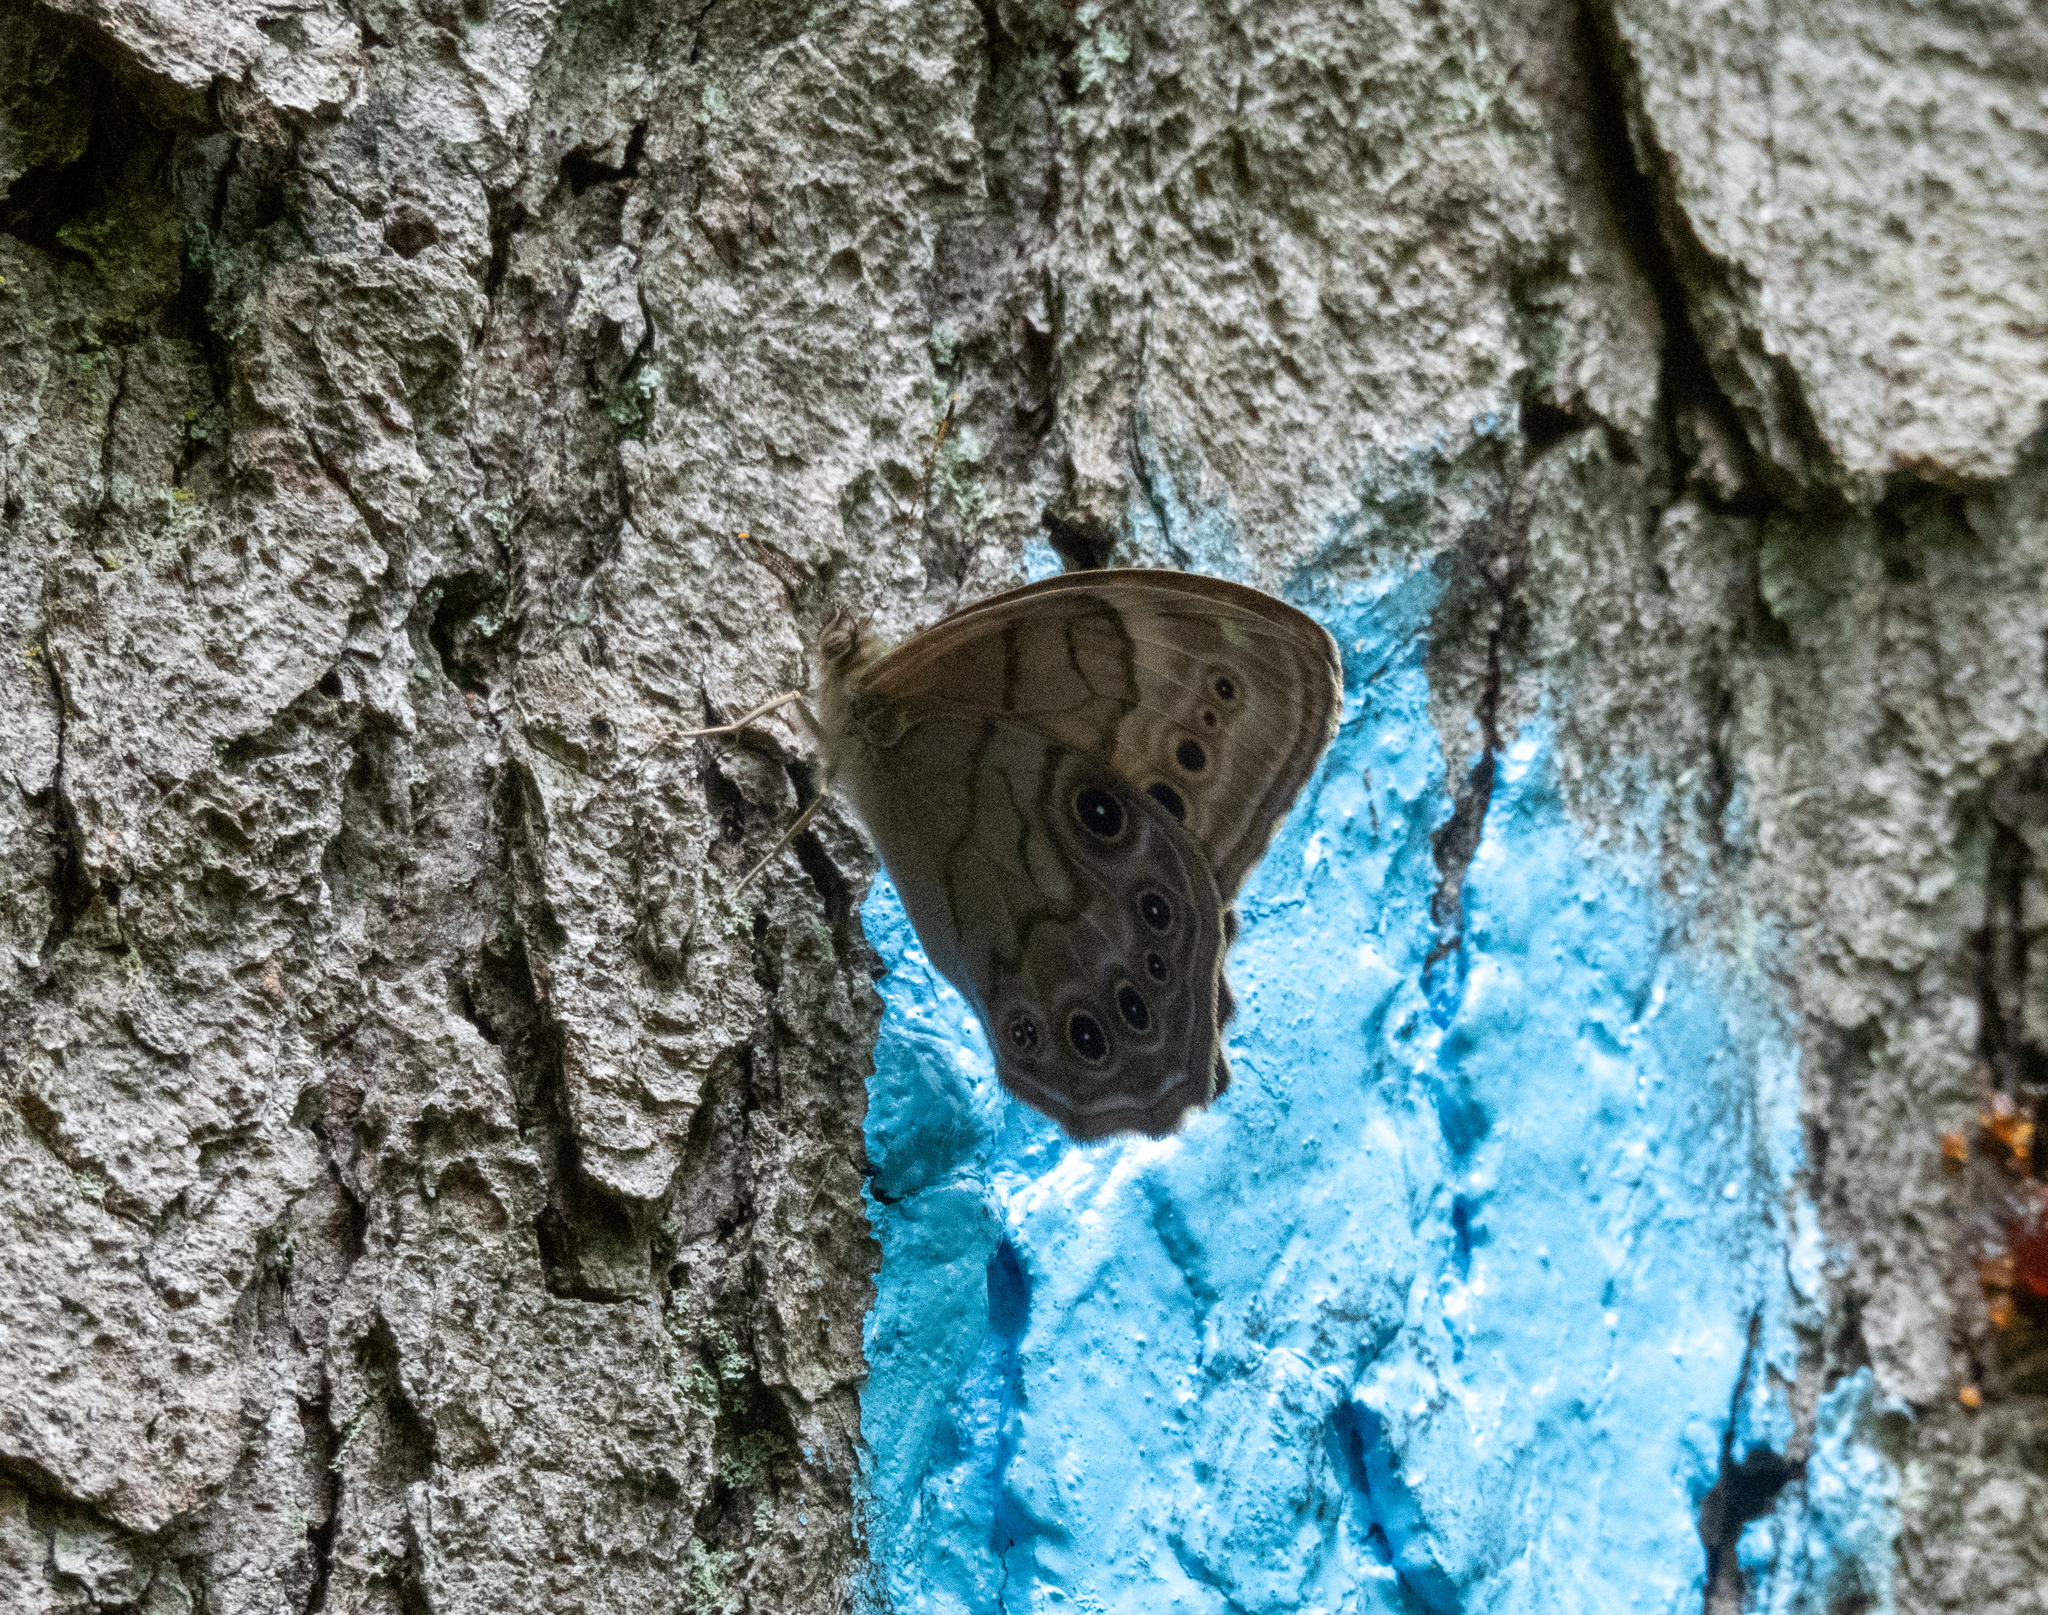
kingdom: Animalia
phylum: Arthropoda
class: Insecta
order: Lepidoptera
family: Nymphalidae
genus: Lethe
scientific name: Lethe anthedon
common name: Northern pearly-eye
